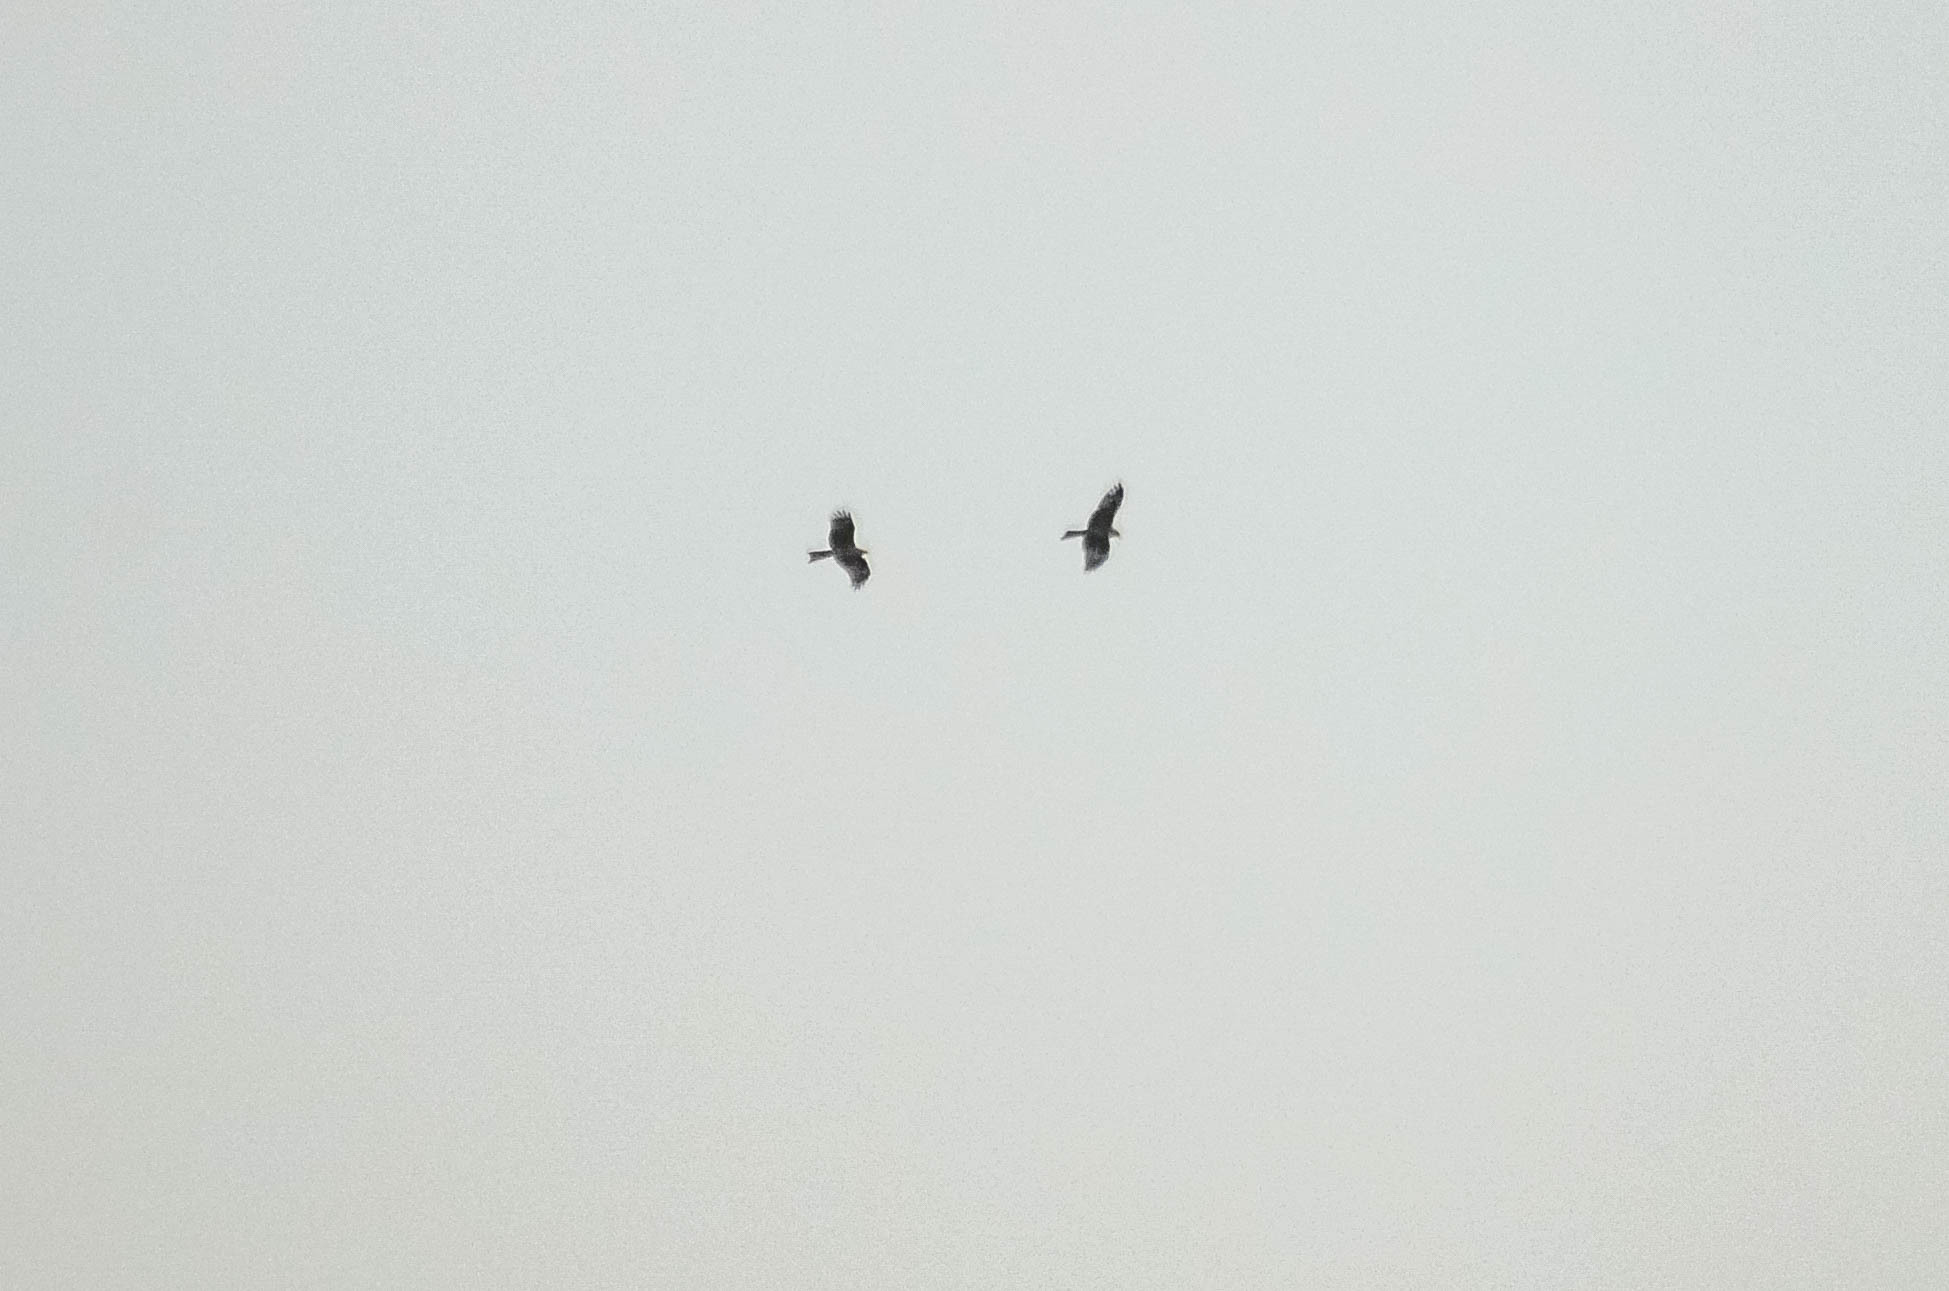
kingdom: Animalia
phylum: Chordata
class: Aves
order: Accipitriformes
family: Accipitridae
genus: Milvus
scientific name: Milvus migrans
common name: Black kite
